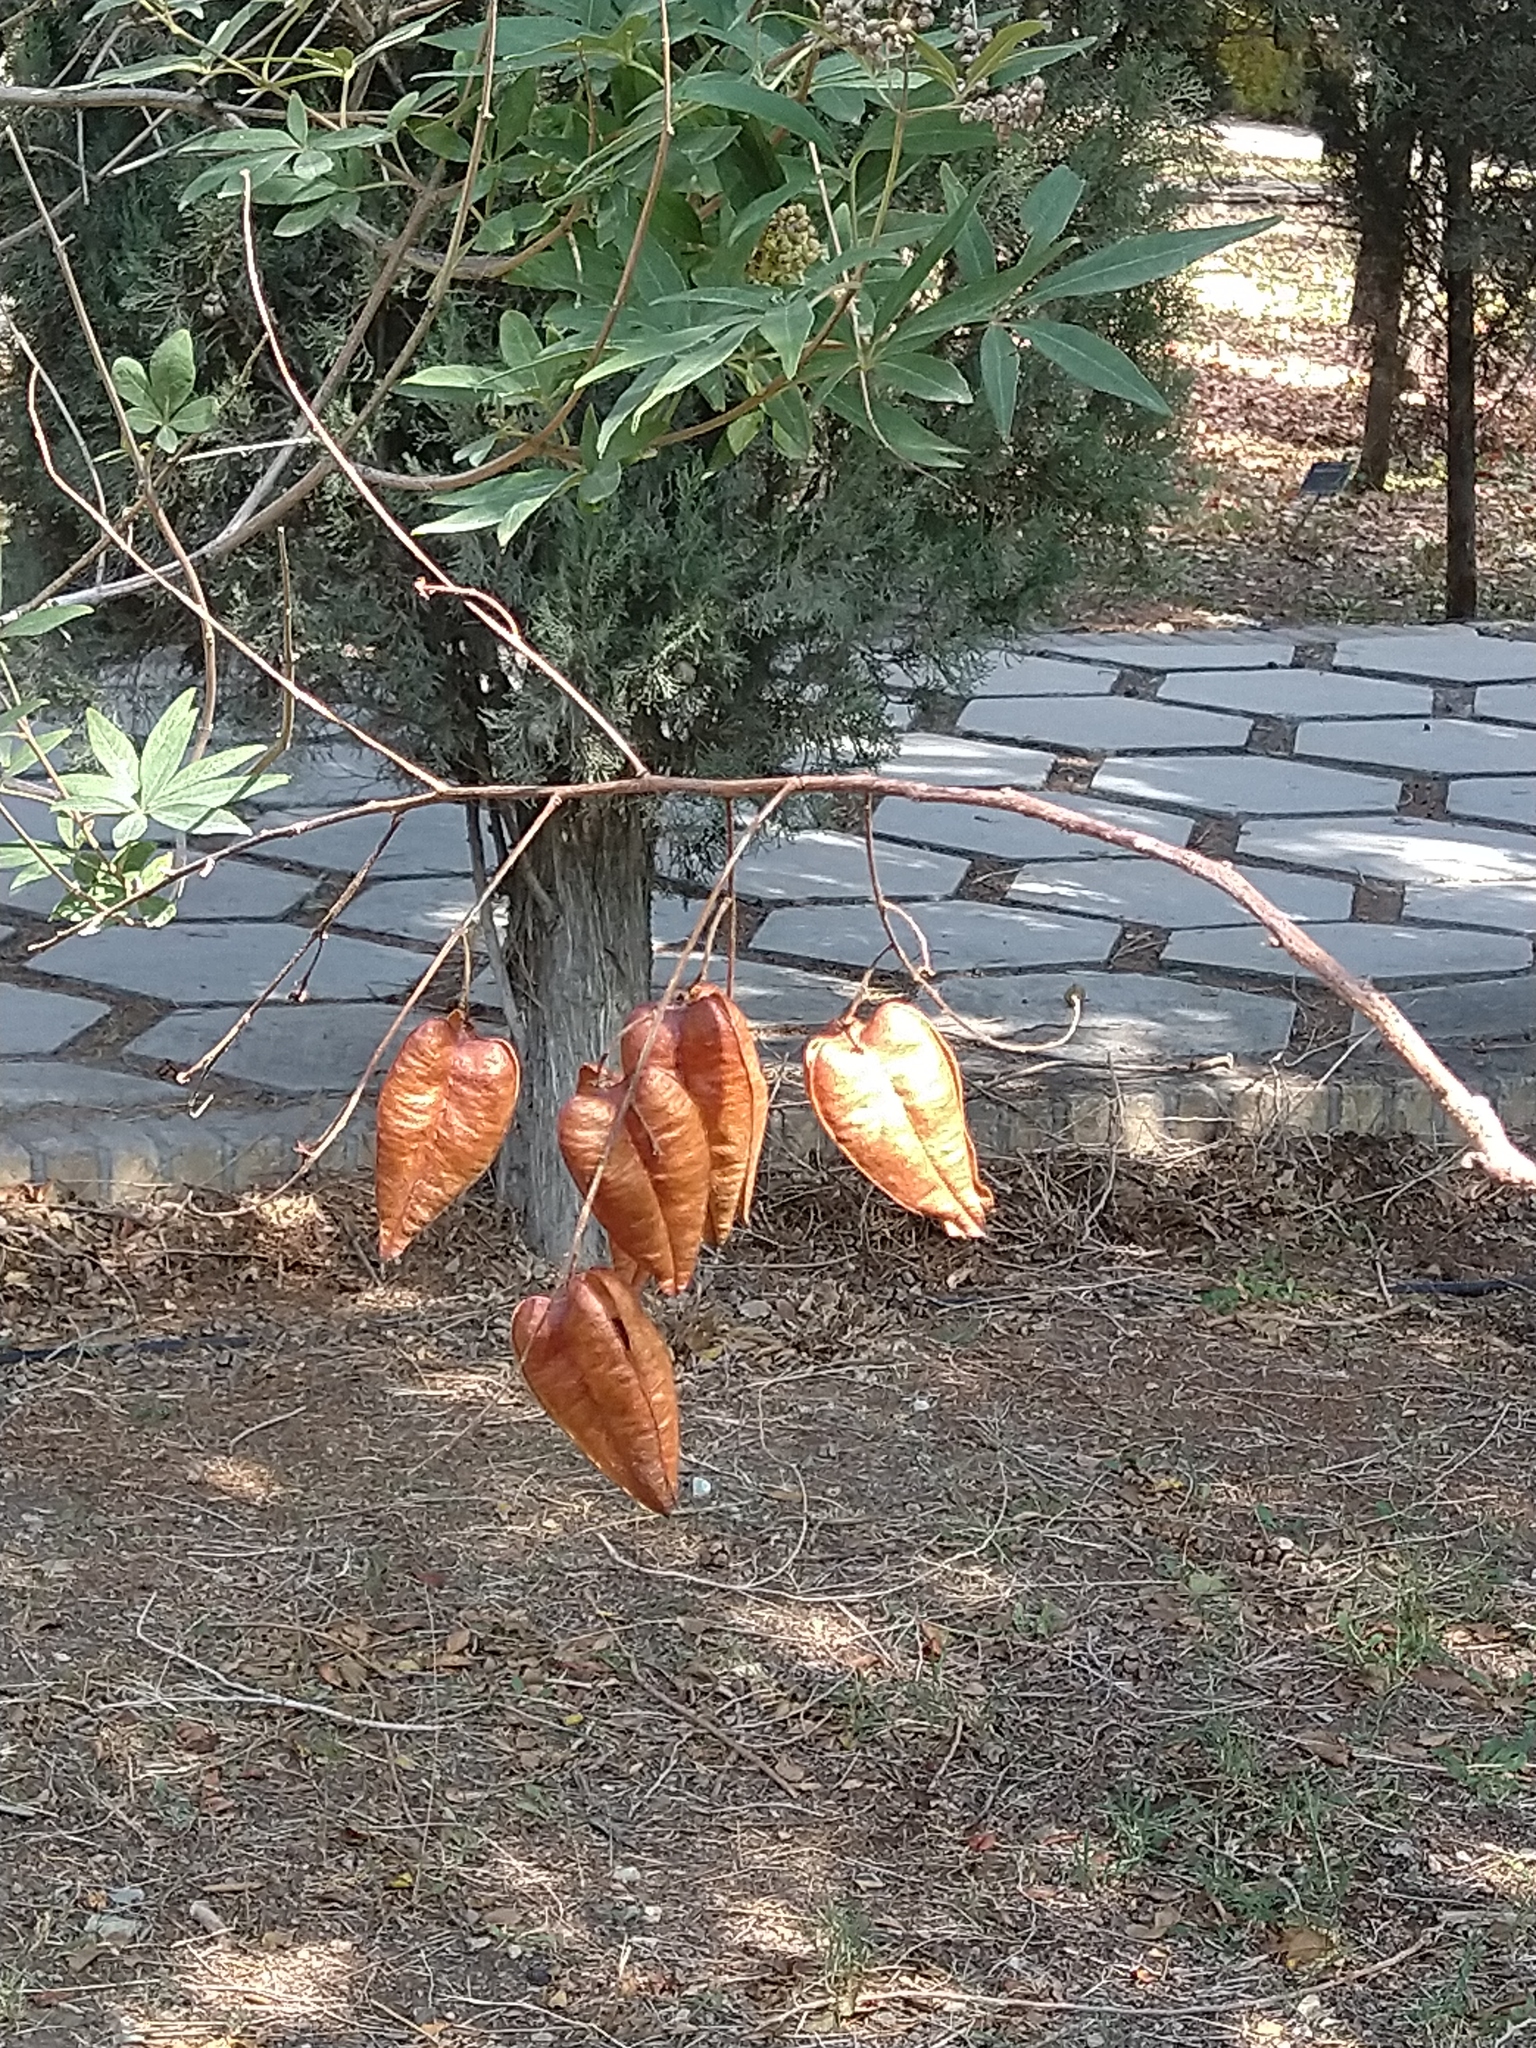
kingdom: Plantae
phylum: Tracheophyta
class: Magnoliopsida
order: Sapindales
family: Sapindaceae
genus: Koelreuteria
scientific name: Koelreuteria paniculata
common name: Pride-of-india
